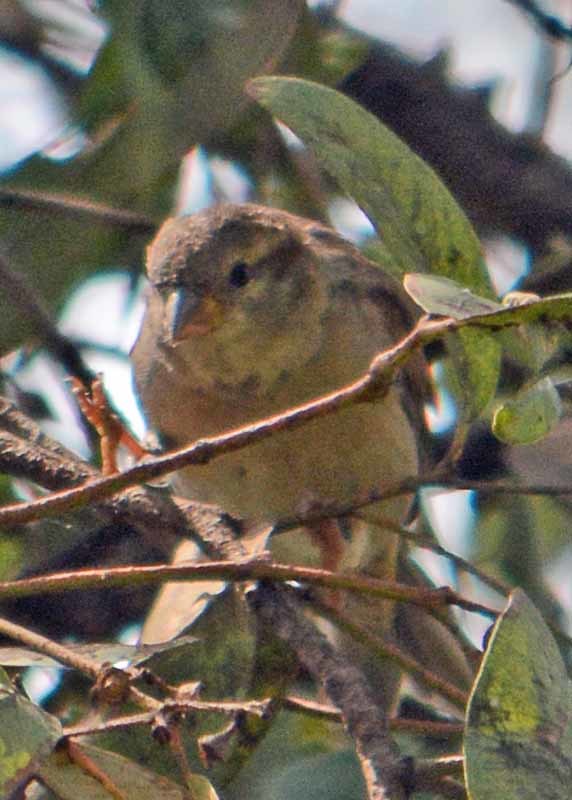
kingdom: Animalia
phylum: Chordata
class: Aves
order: Passeriformes
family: Passeridae
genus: Passer
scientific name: Passer domesticus
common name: House sparrow
